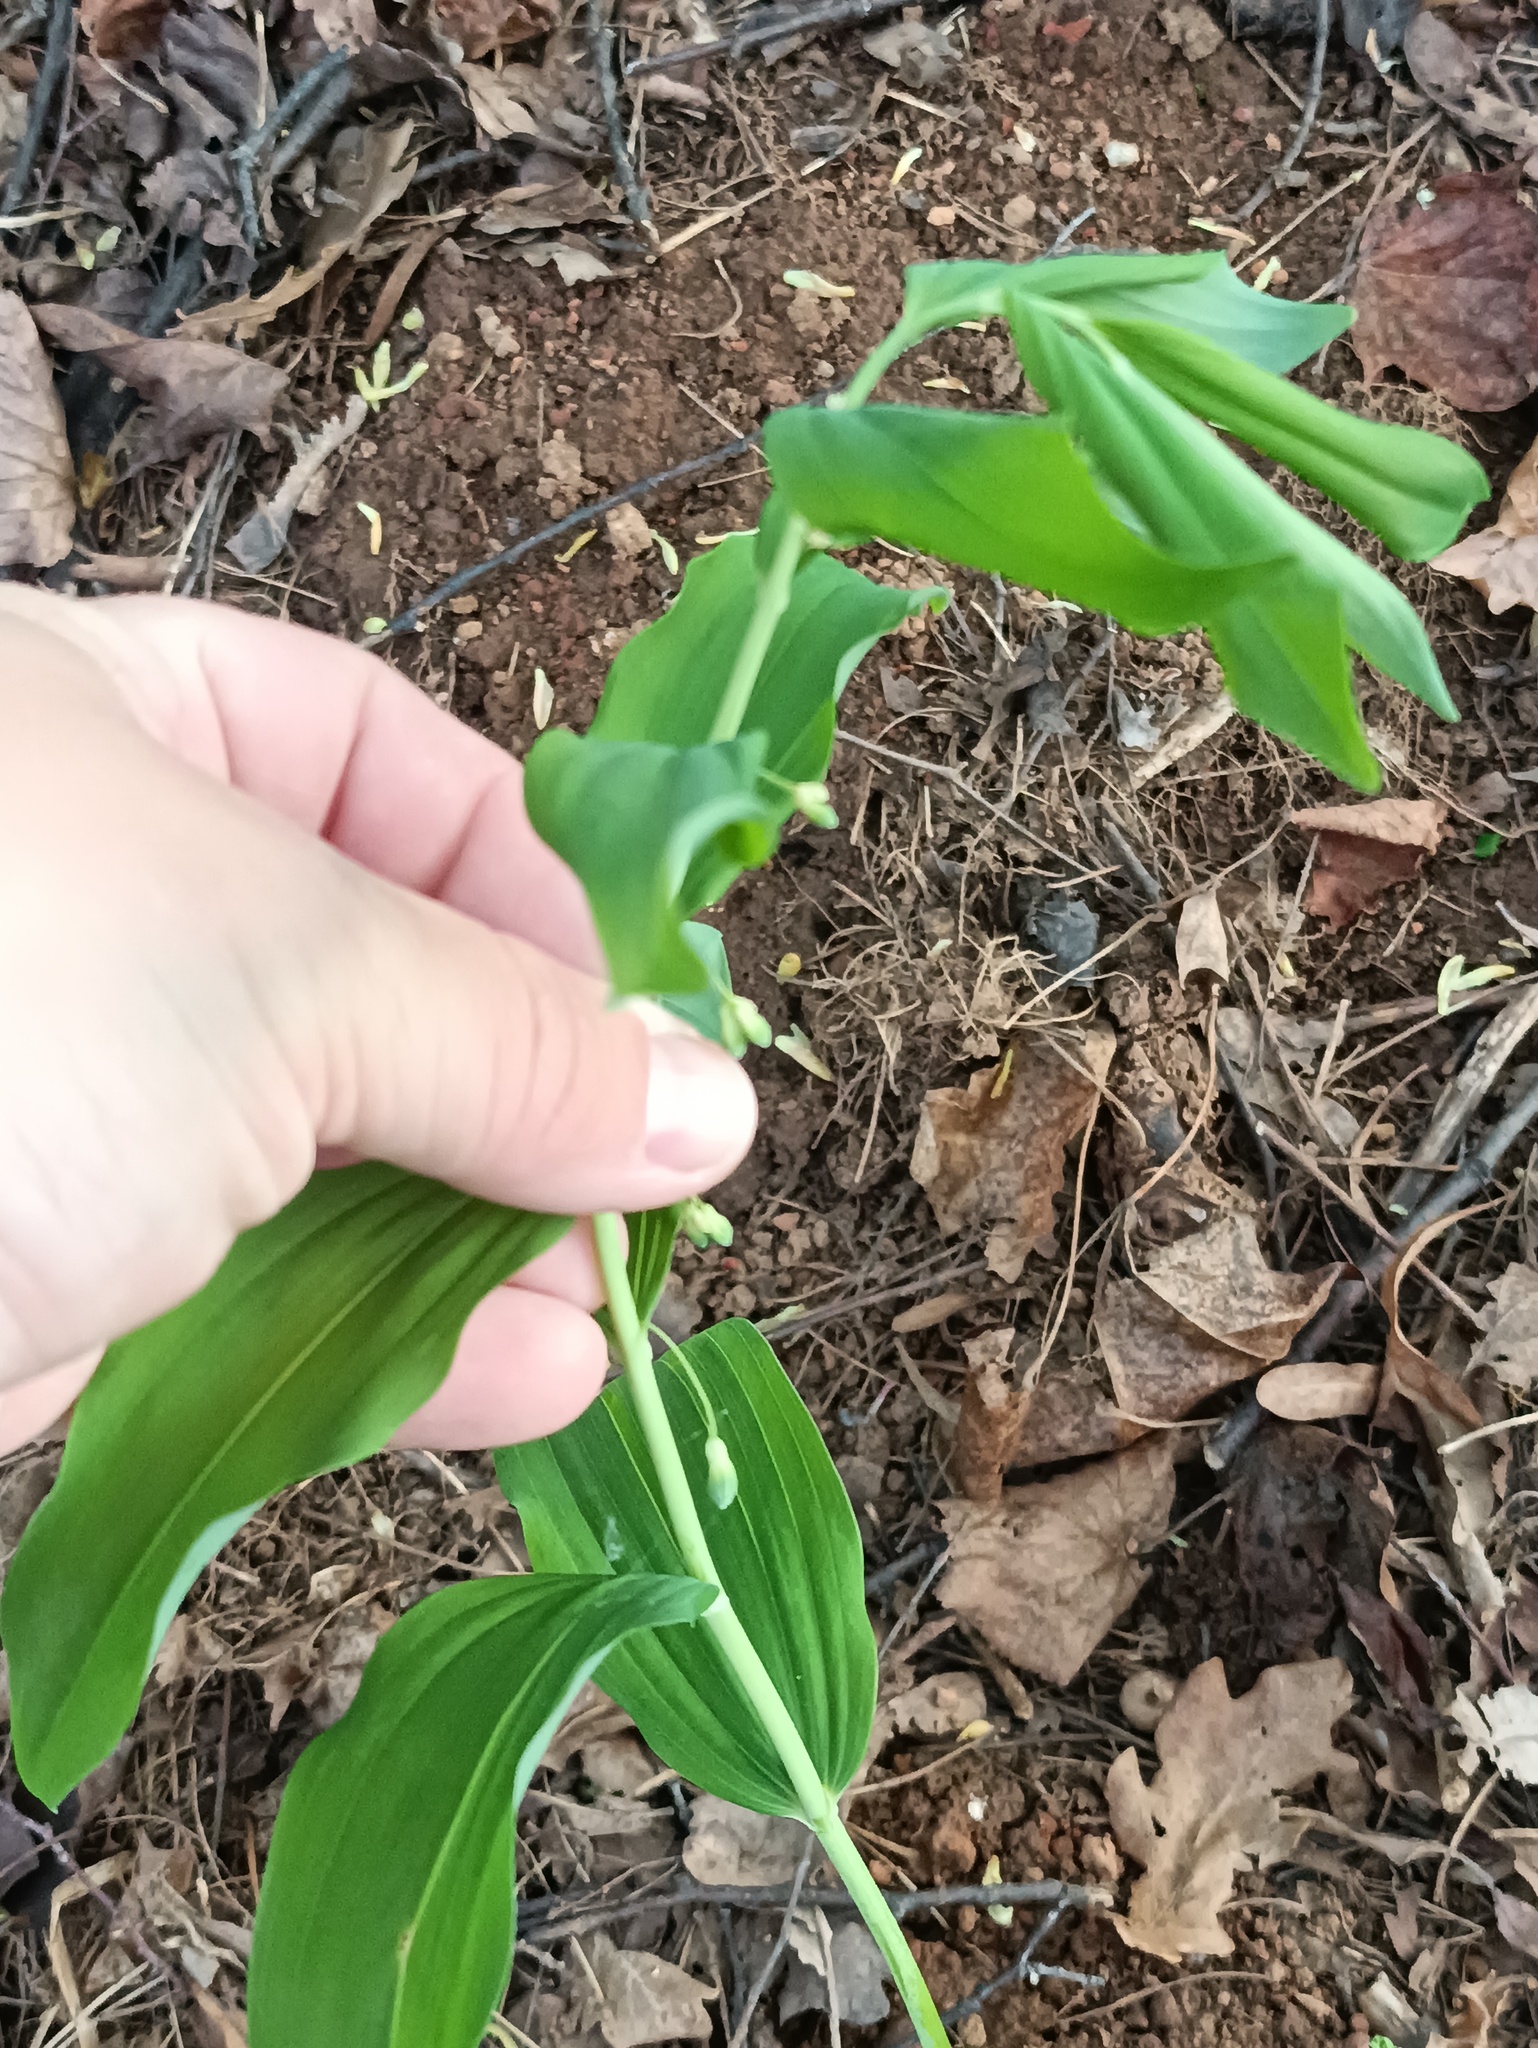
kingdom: Plantae
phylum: Tracheophyta
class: Liliopsida
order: Asparagales
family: Asparagaceae
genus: Polygonatum
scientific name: Polygonatum multiflorum
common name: Solomon's-seal
